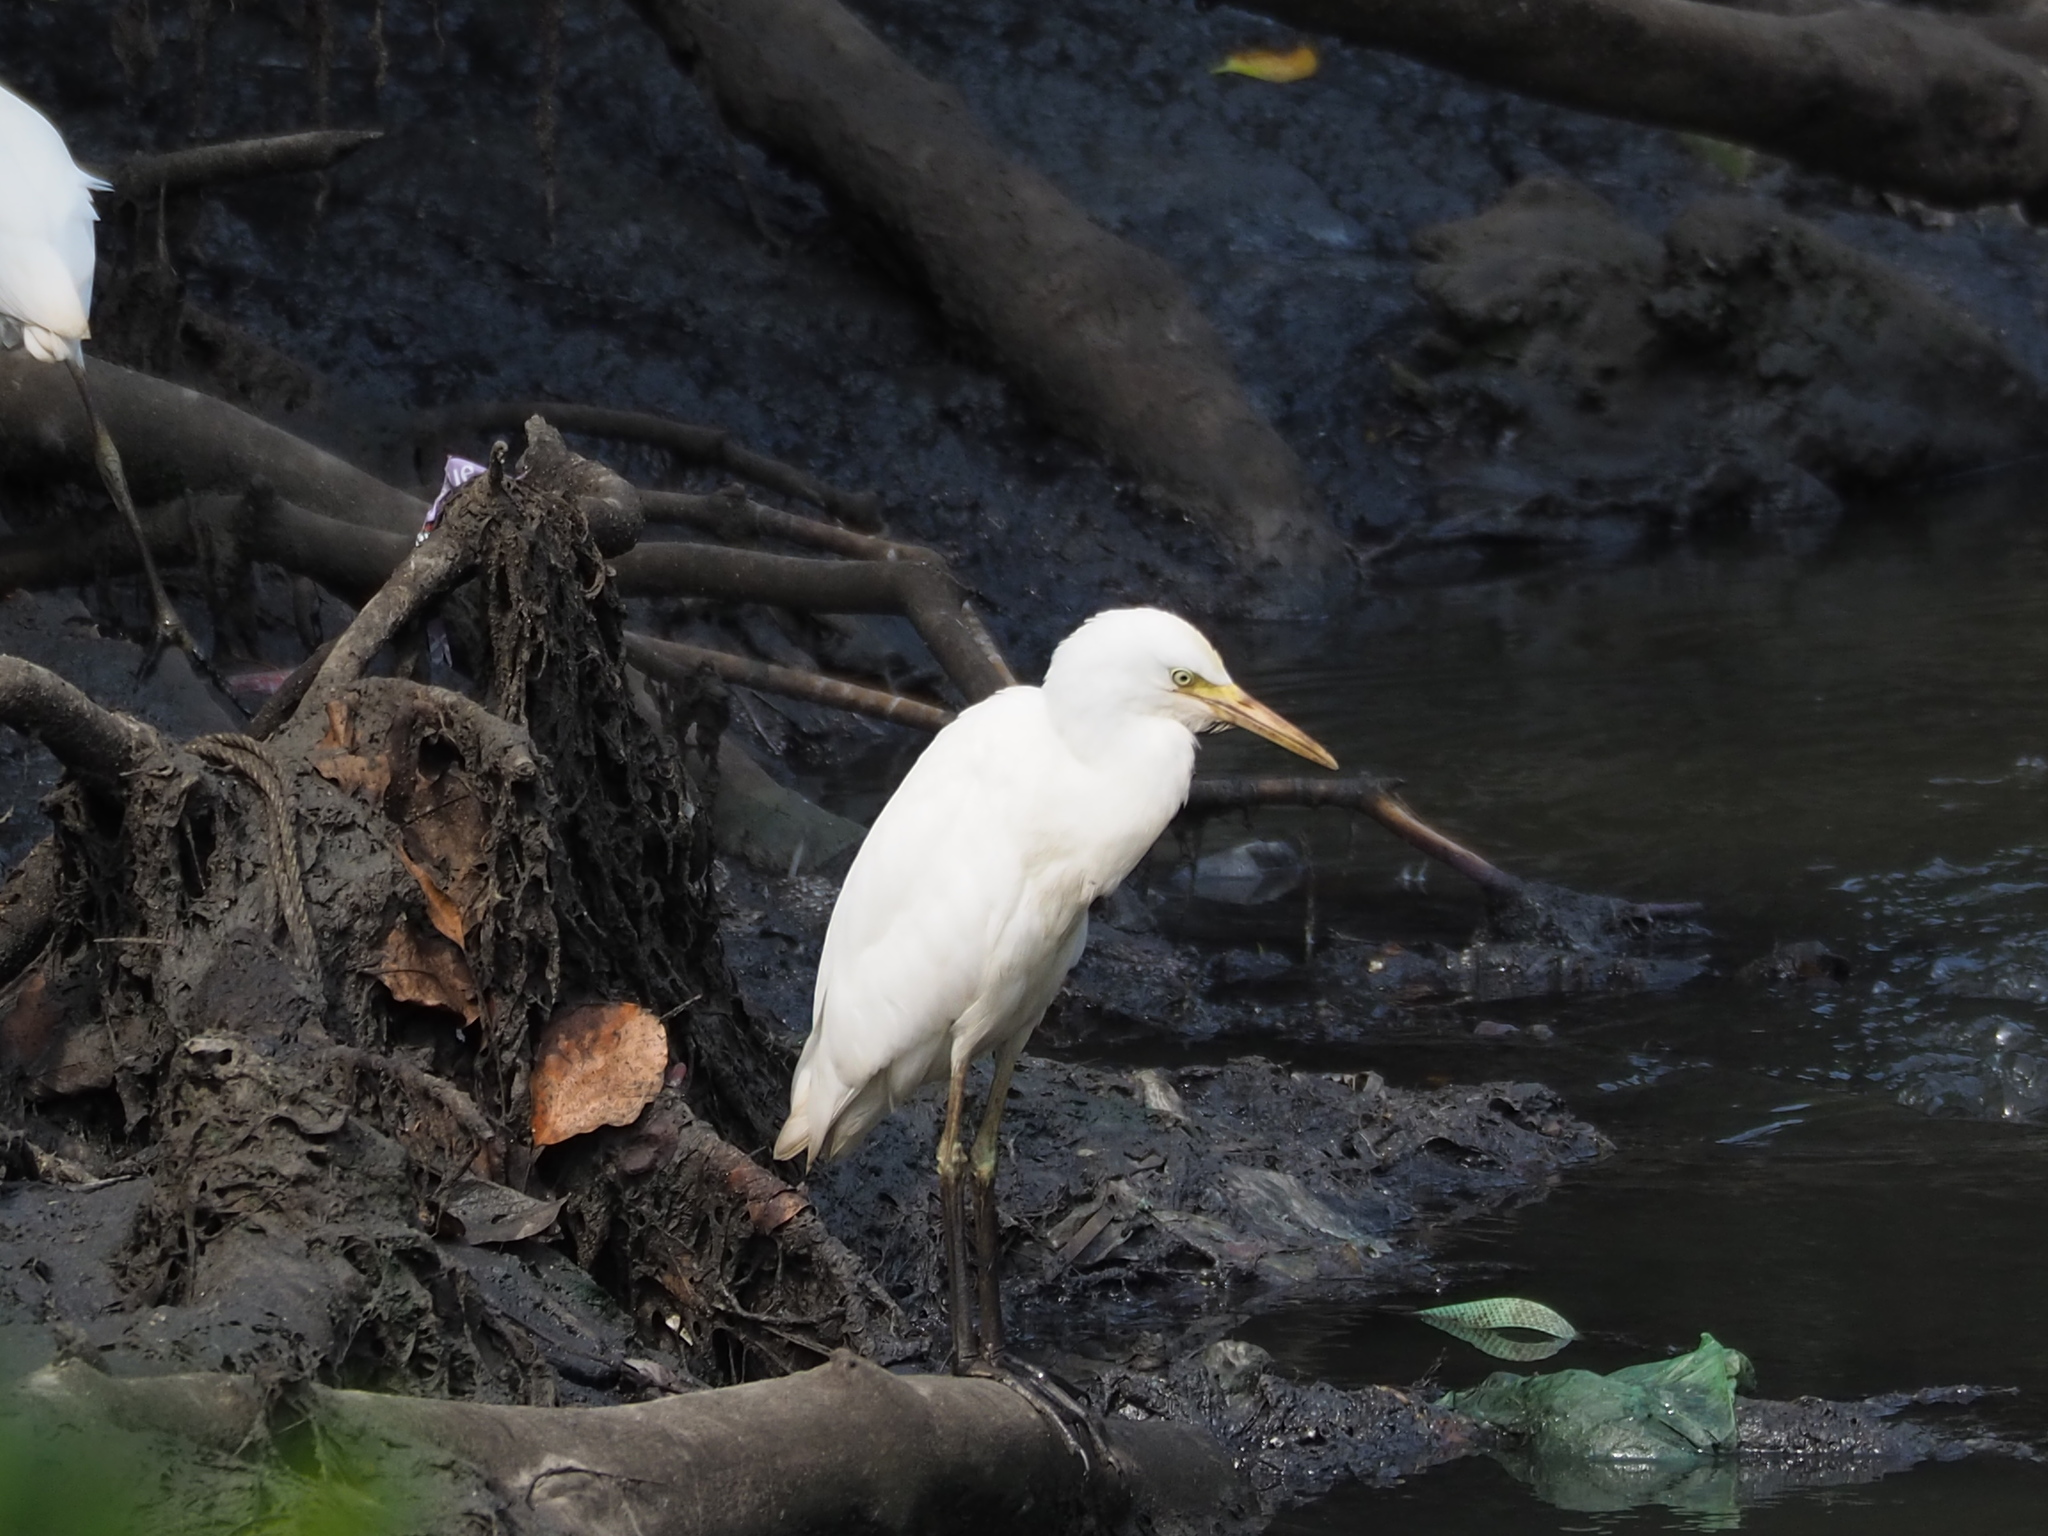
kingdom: Animalia
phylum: Chordata
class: Aves
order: Pelecaniformes
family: Ardeidae
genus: Bubulcus
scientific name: Bubulcus coromandus
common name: Eastern cattle egret
